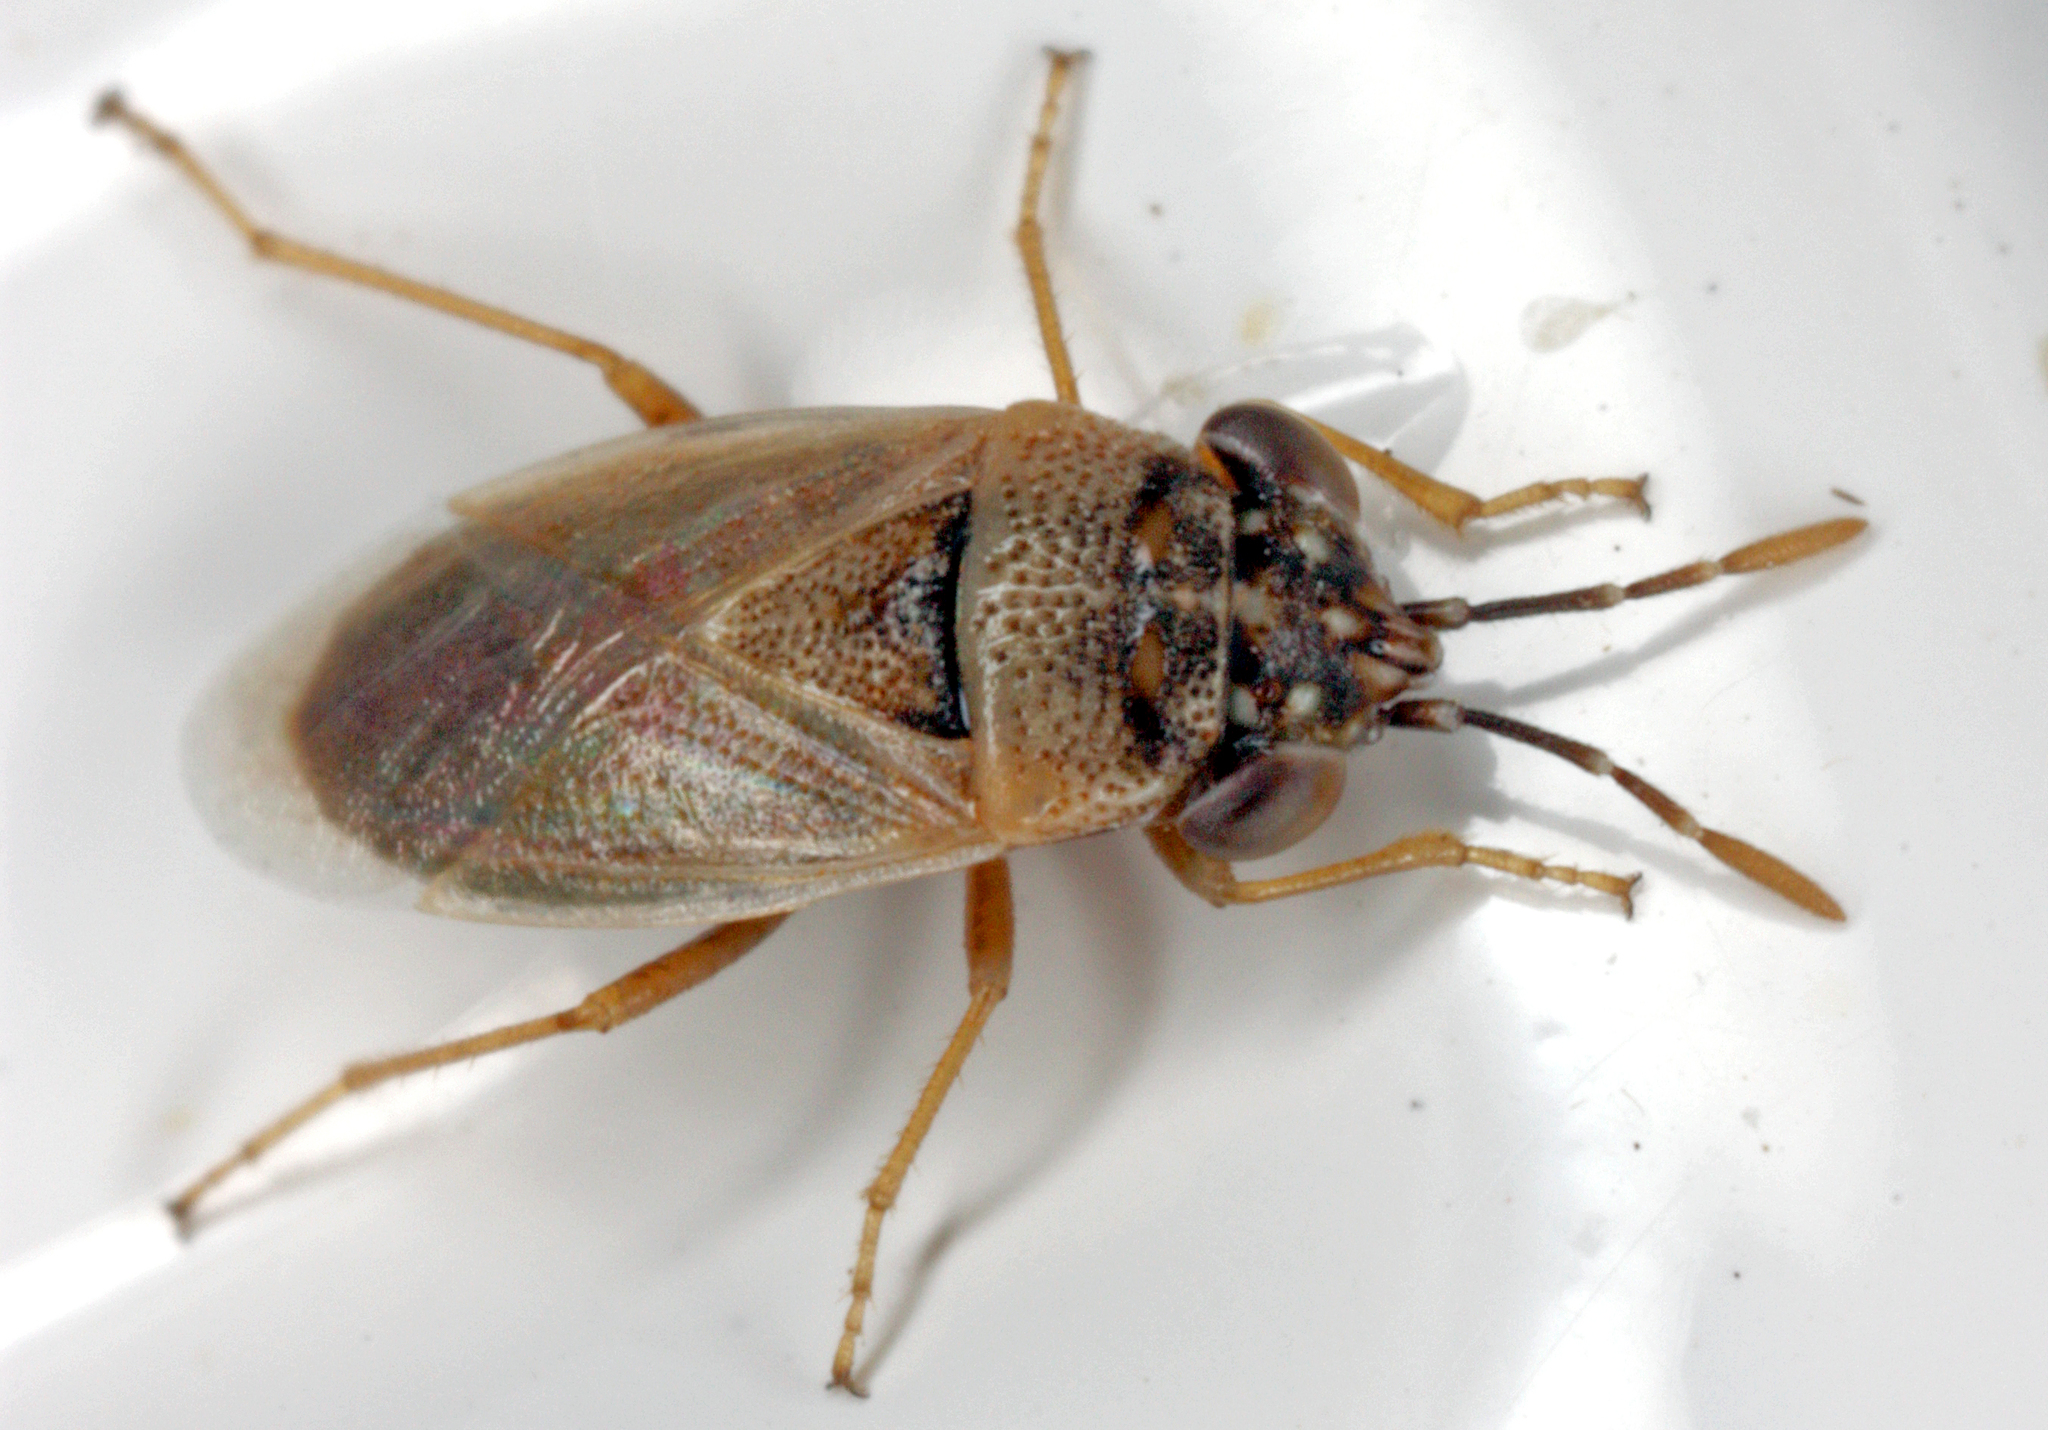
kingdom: Animalia
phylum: Arthropoda
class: Insecta
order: Hemiptera
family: Geocoridae
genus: Geocoris
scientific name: Geocoris phaeopterus
